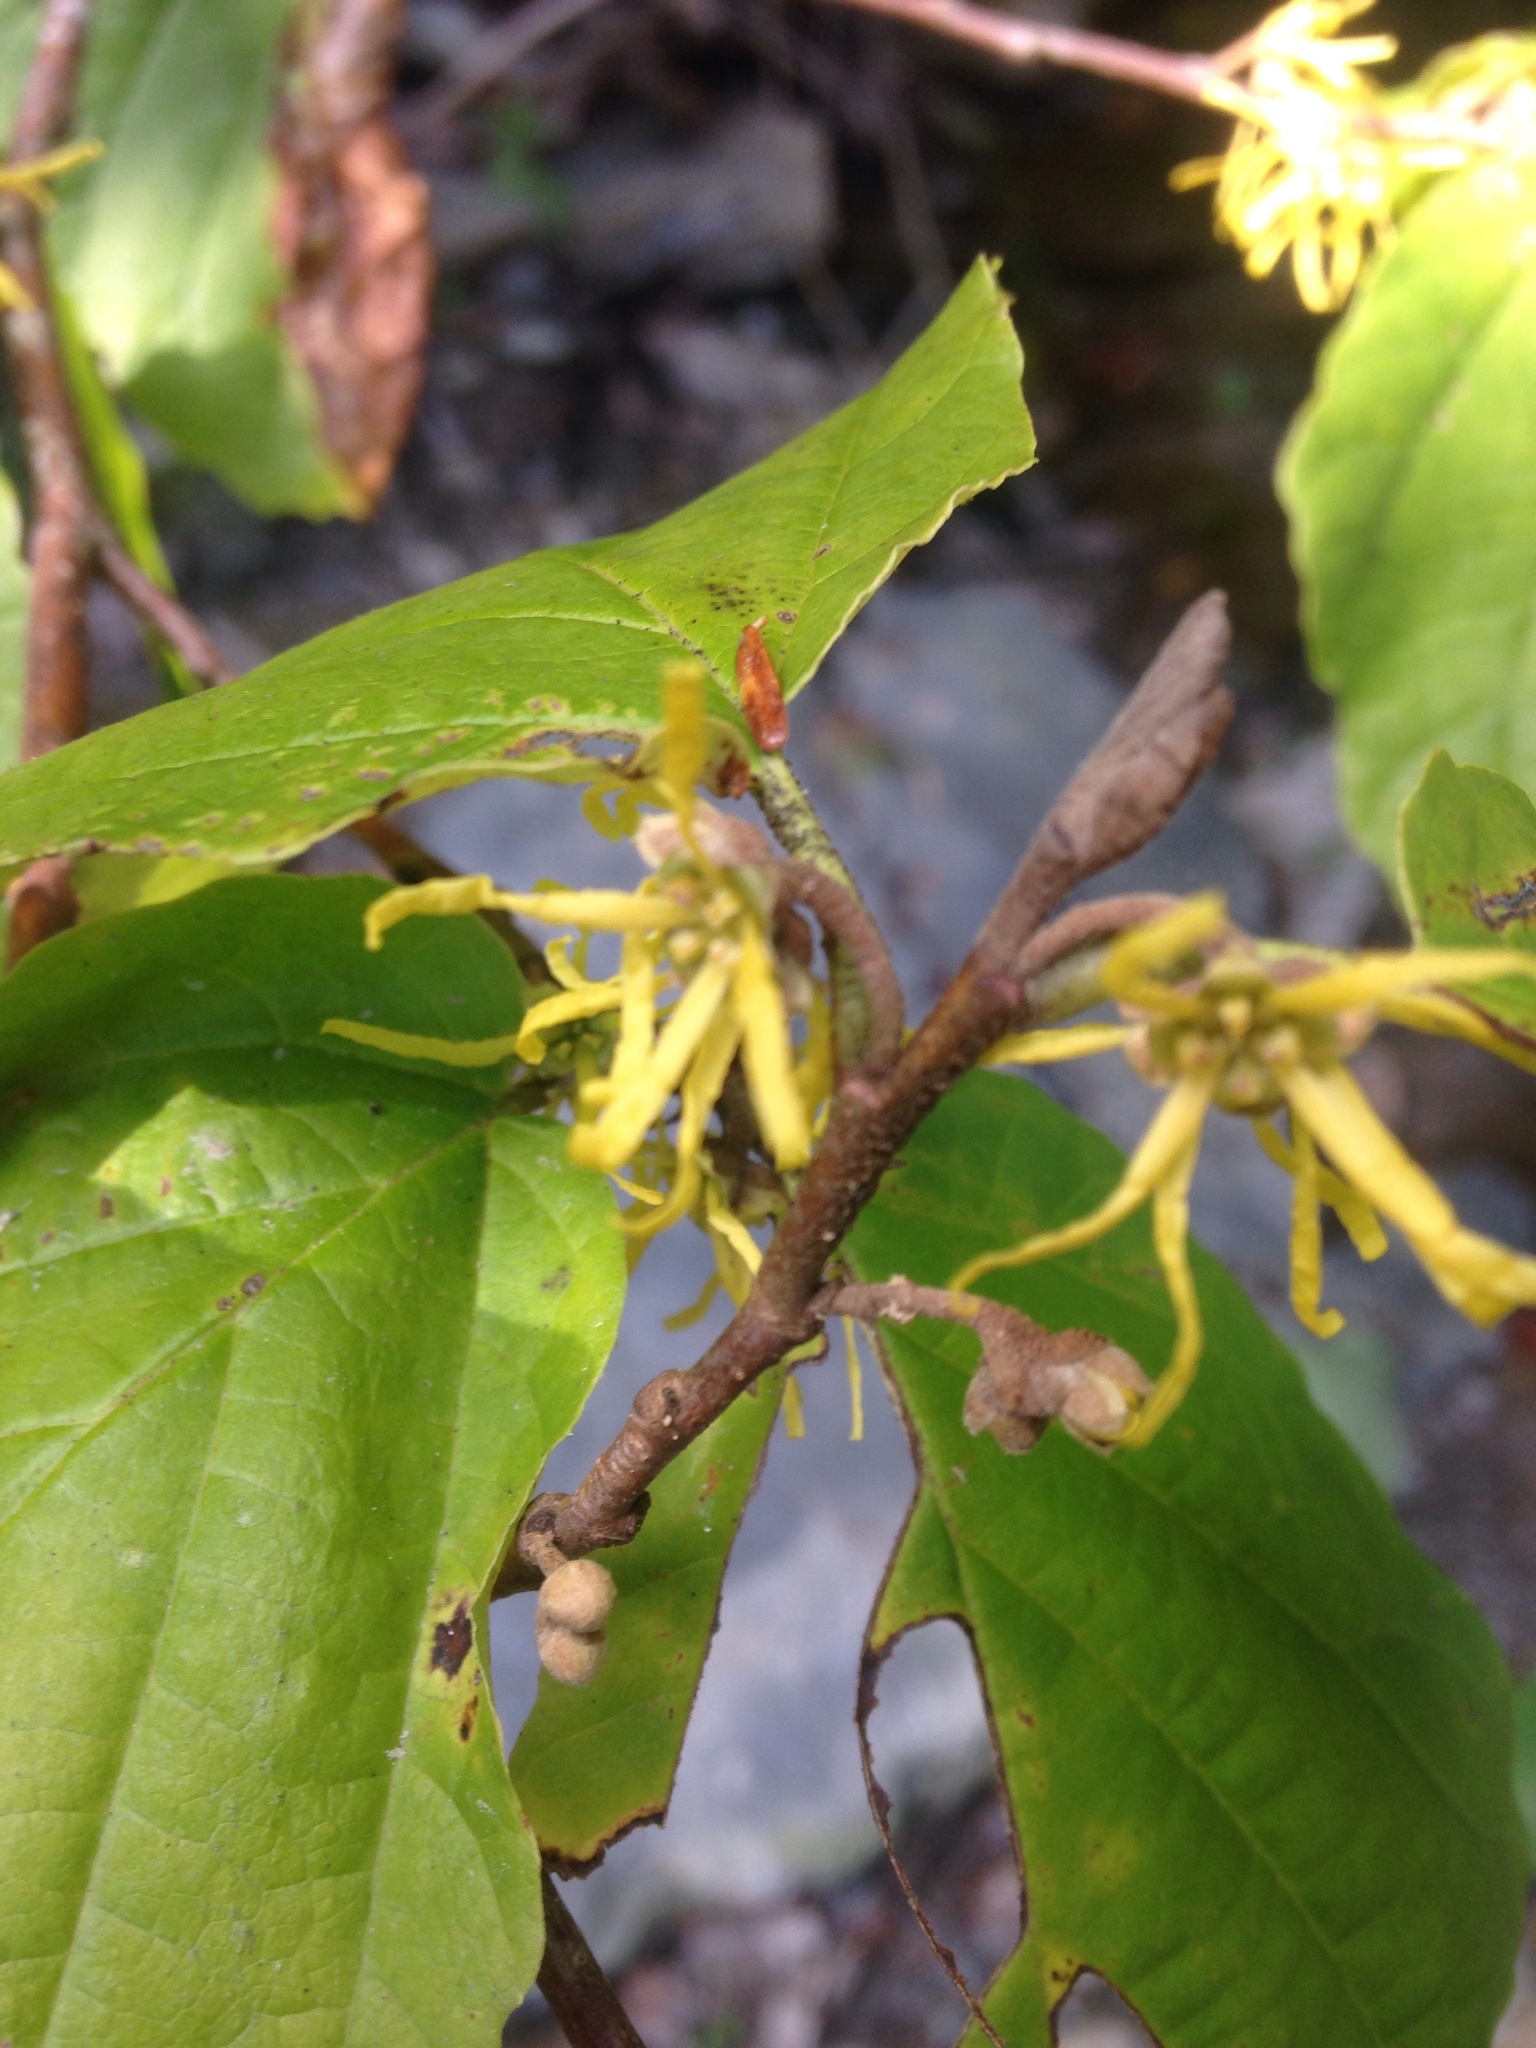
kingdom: Plantae
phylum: Tracheophyta
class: Magnoliopsida
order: Saxifragales
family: Hamamelidaceae
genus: Hamamelis
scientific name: Hamamelis virginiana
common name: Witch-hazel
